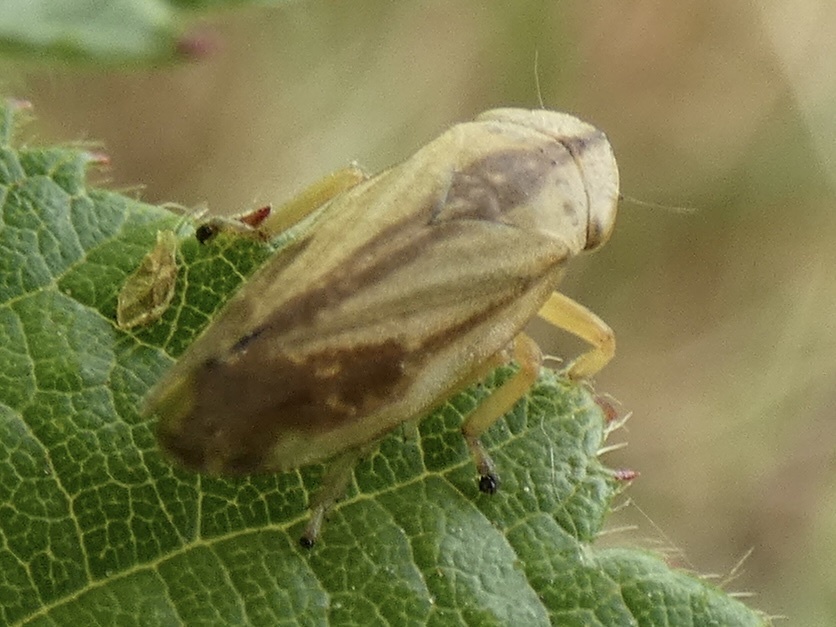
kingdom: Animalia
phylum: Arthropoda
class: Insecta
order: Hemiptera
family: Aphrophoridae
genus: Philaenus
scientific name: Philaenus spumarius
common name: Meadow spittlebug
